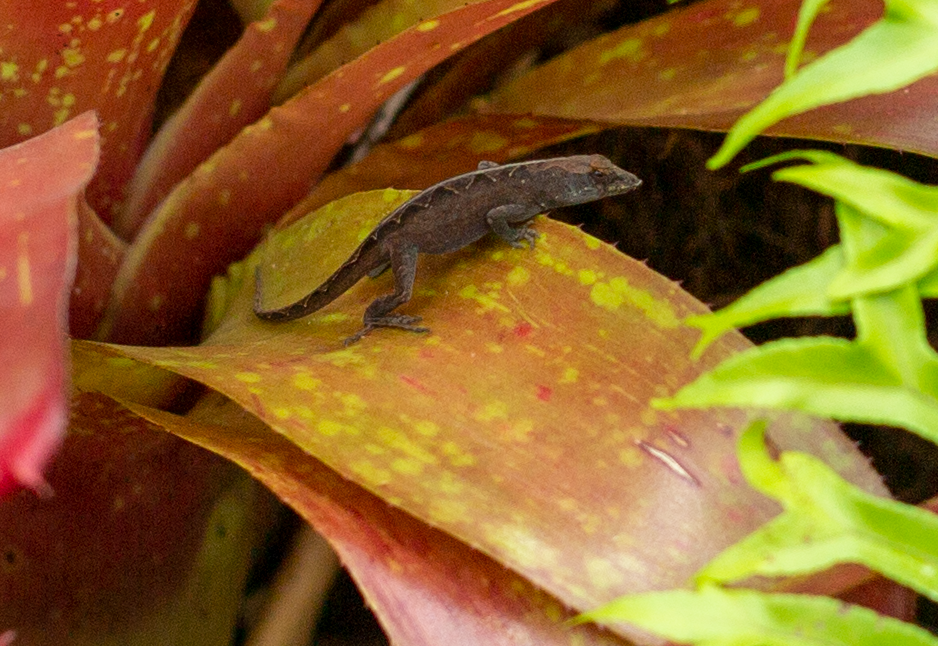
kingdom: Animalia
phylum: Chordata
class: Squamata
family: Dactyloidae
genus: Anolis
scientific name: Anolis sagrei
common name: Brown anole
